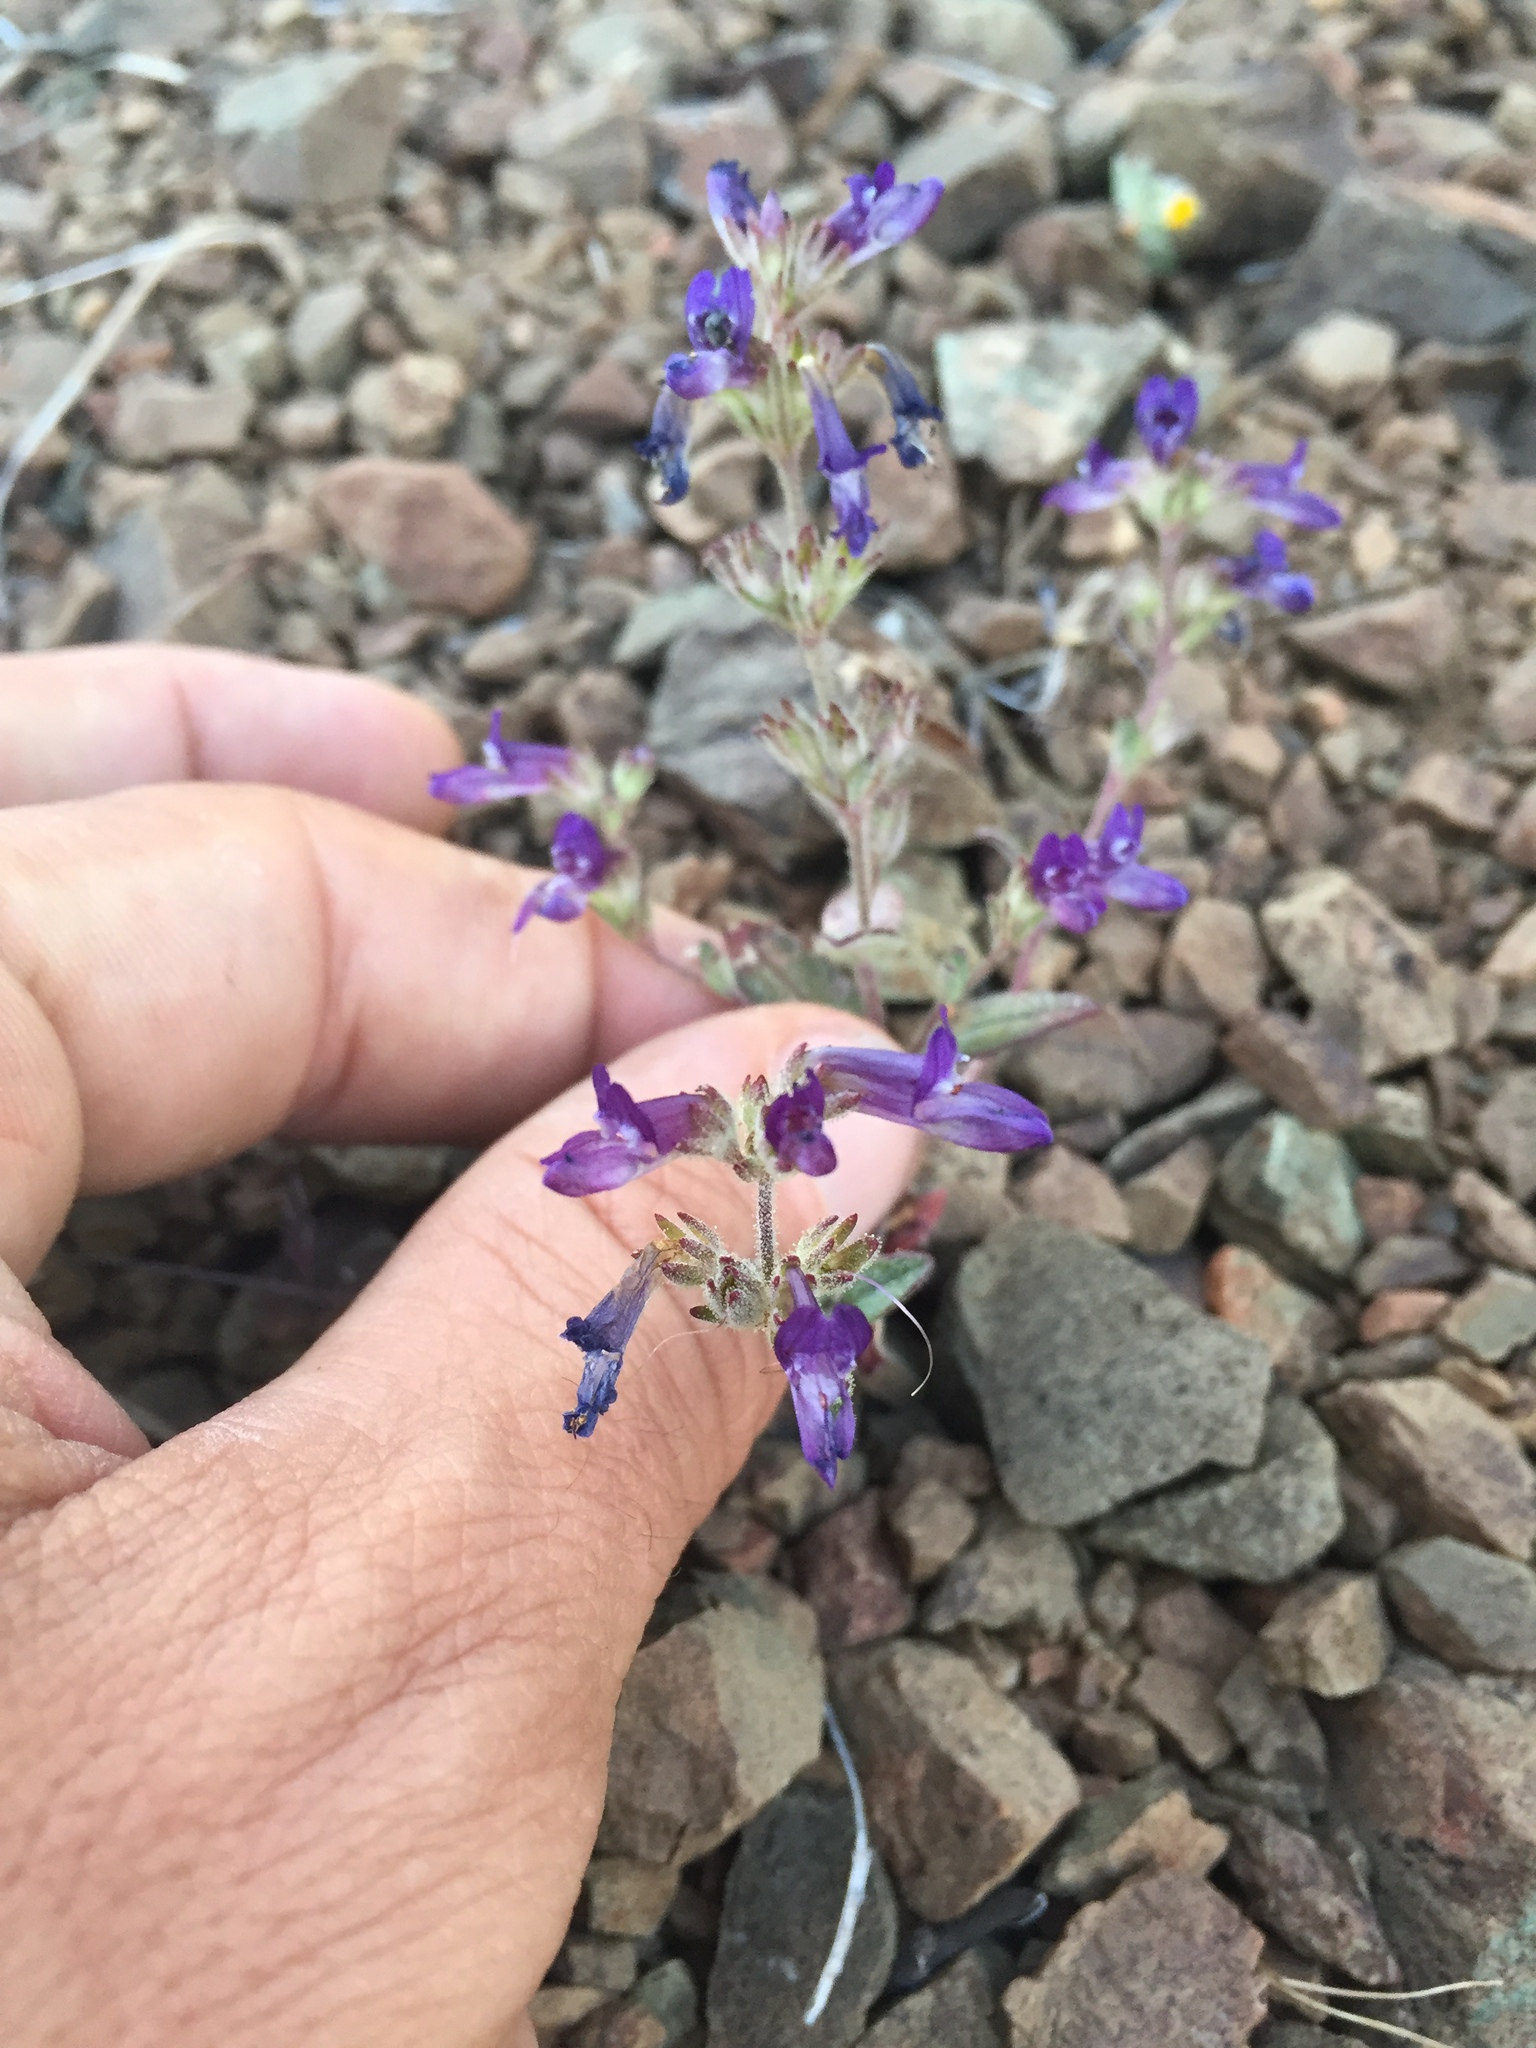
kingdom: Plantae
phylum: Tracheophyta
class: Magnoliopsida
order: Lamiales
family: Plantaginaceae
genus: Collinsia
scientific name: Collinsia greenei
